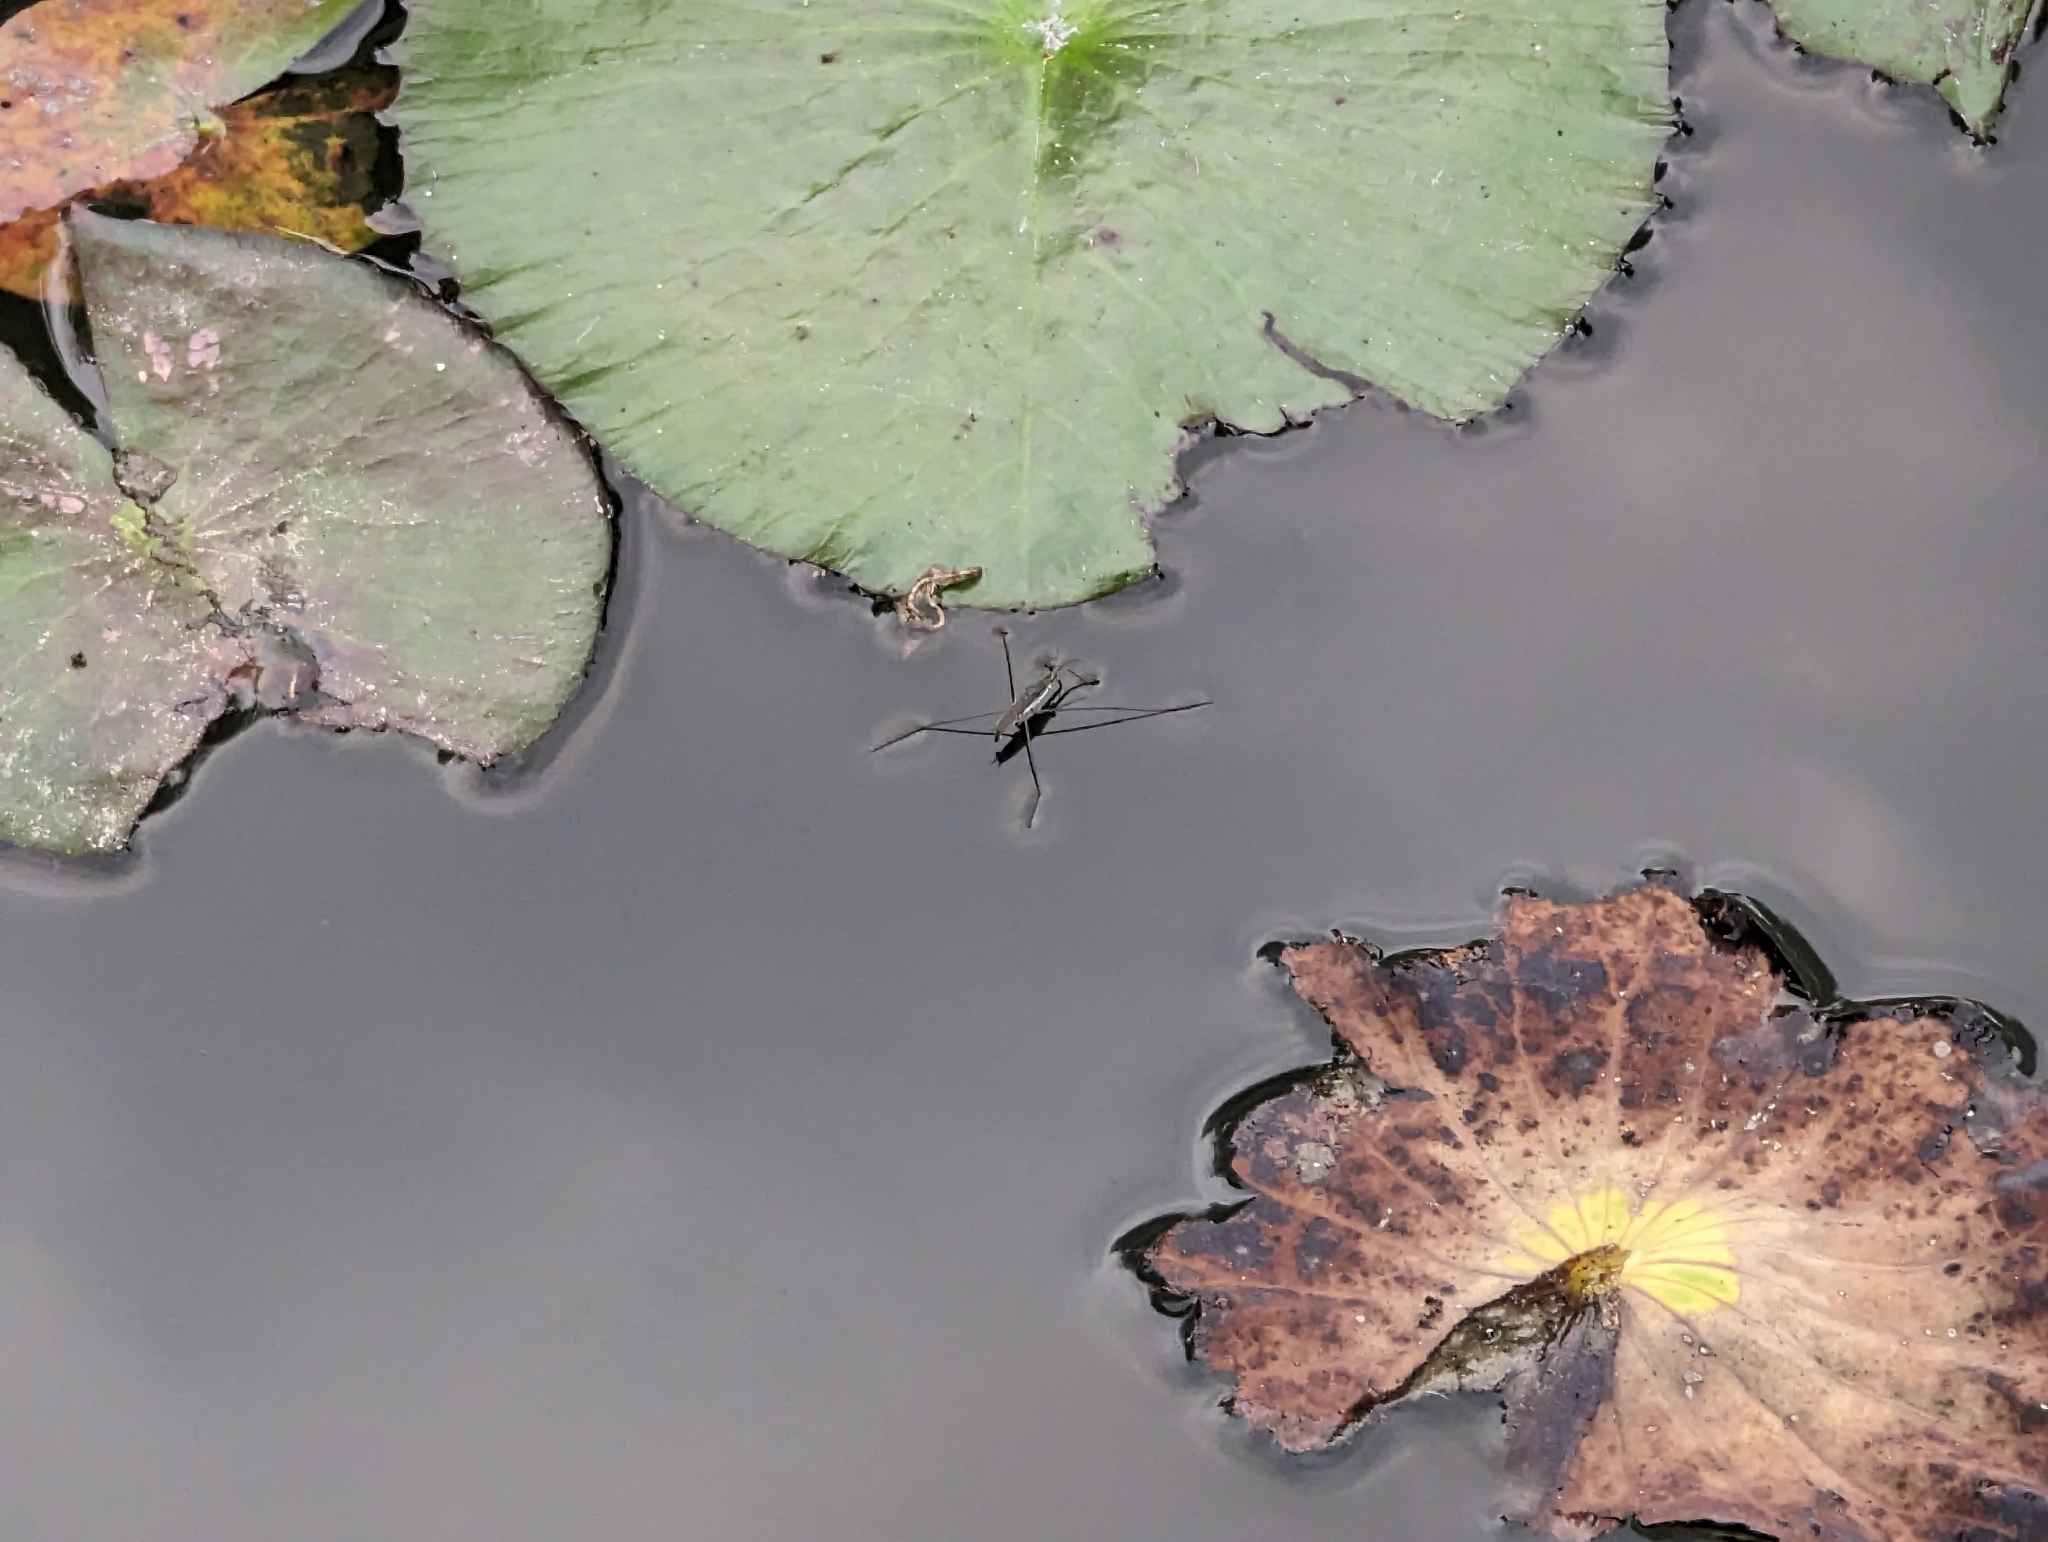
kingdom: Animalia
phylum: Arthropoda
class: Insecta
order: Hemiptera
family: Gerridae
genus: Aquarius
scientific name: Aquarius paludum
